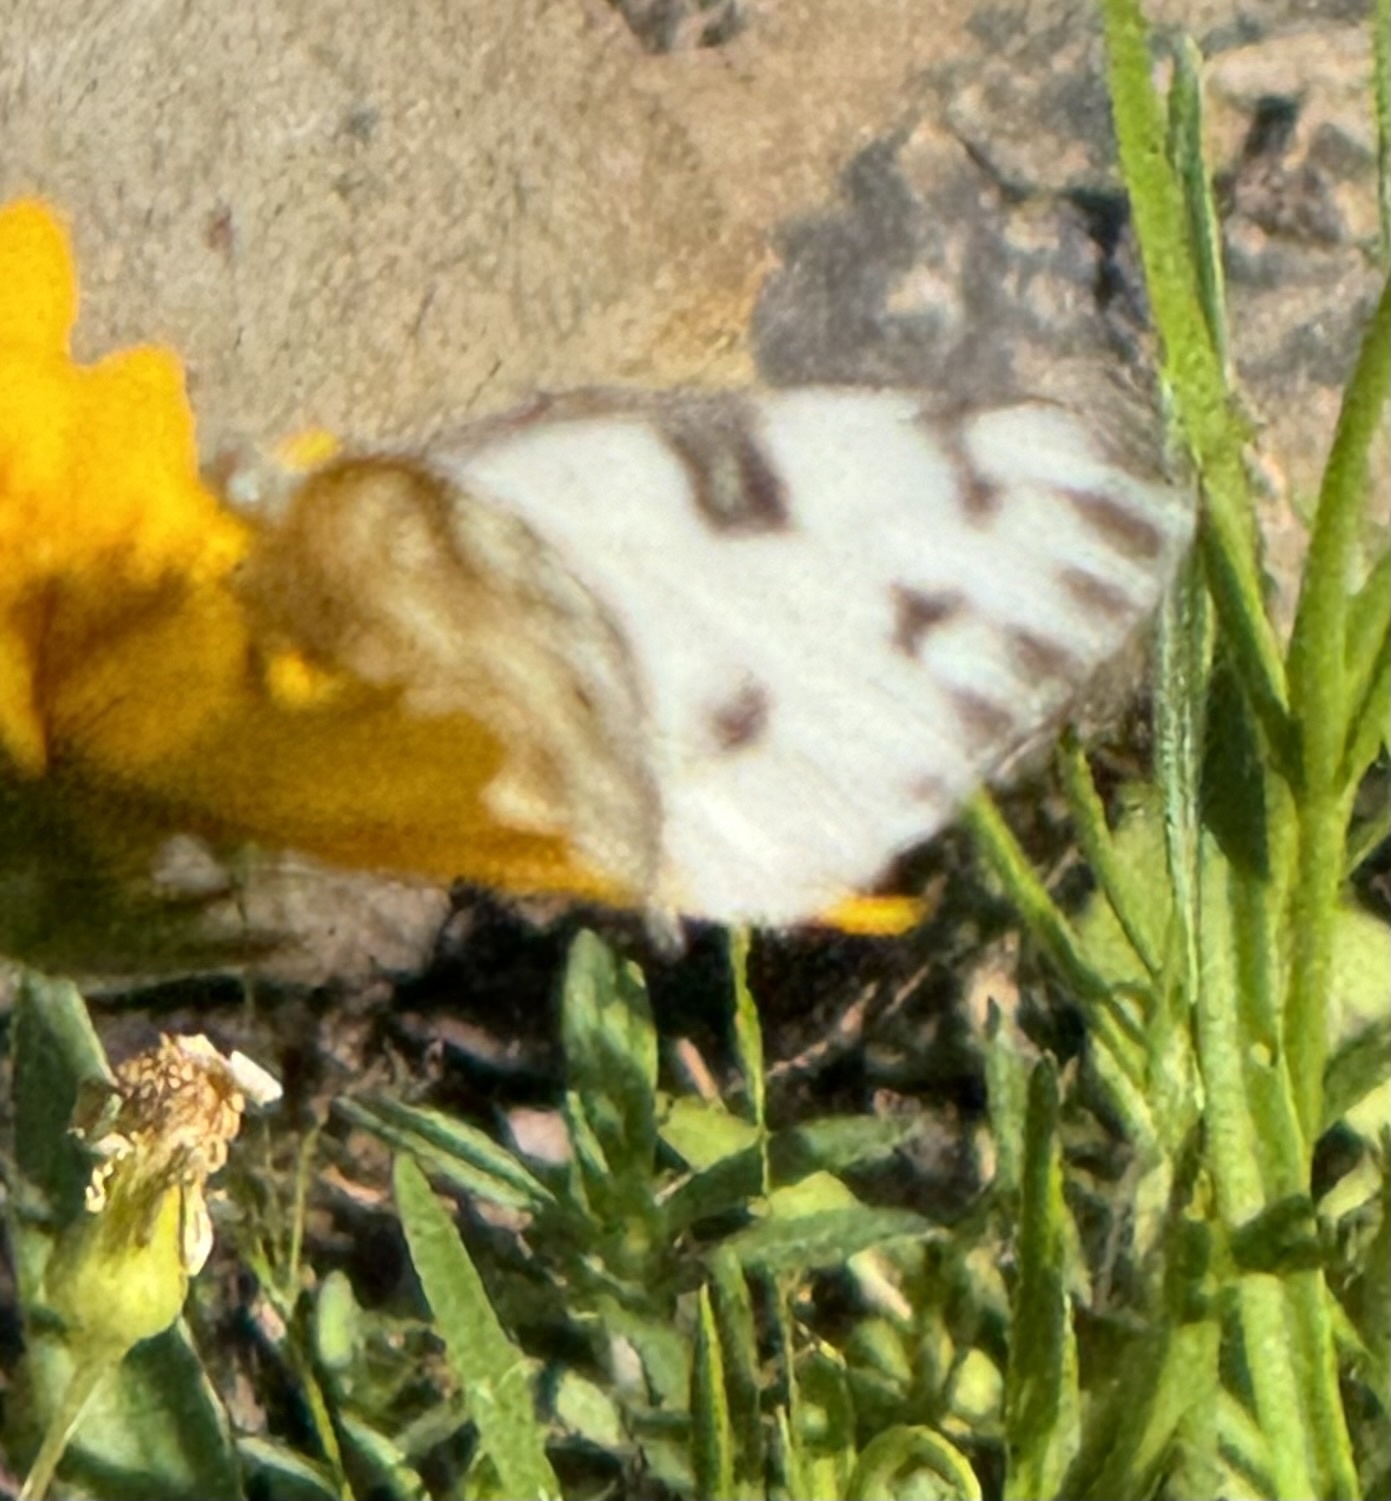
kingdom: Animalia
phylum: Arthropoda
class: Insecta
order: Lepidoptera
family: Pieridae
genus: Pontia
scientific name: Pontia protodice
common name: Checkered white
